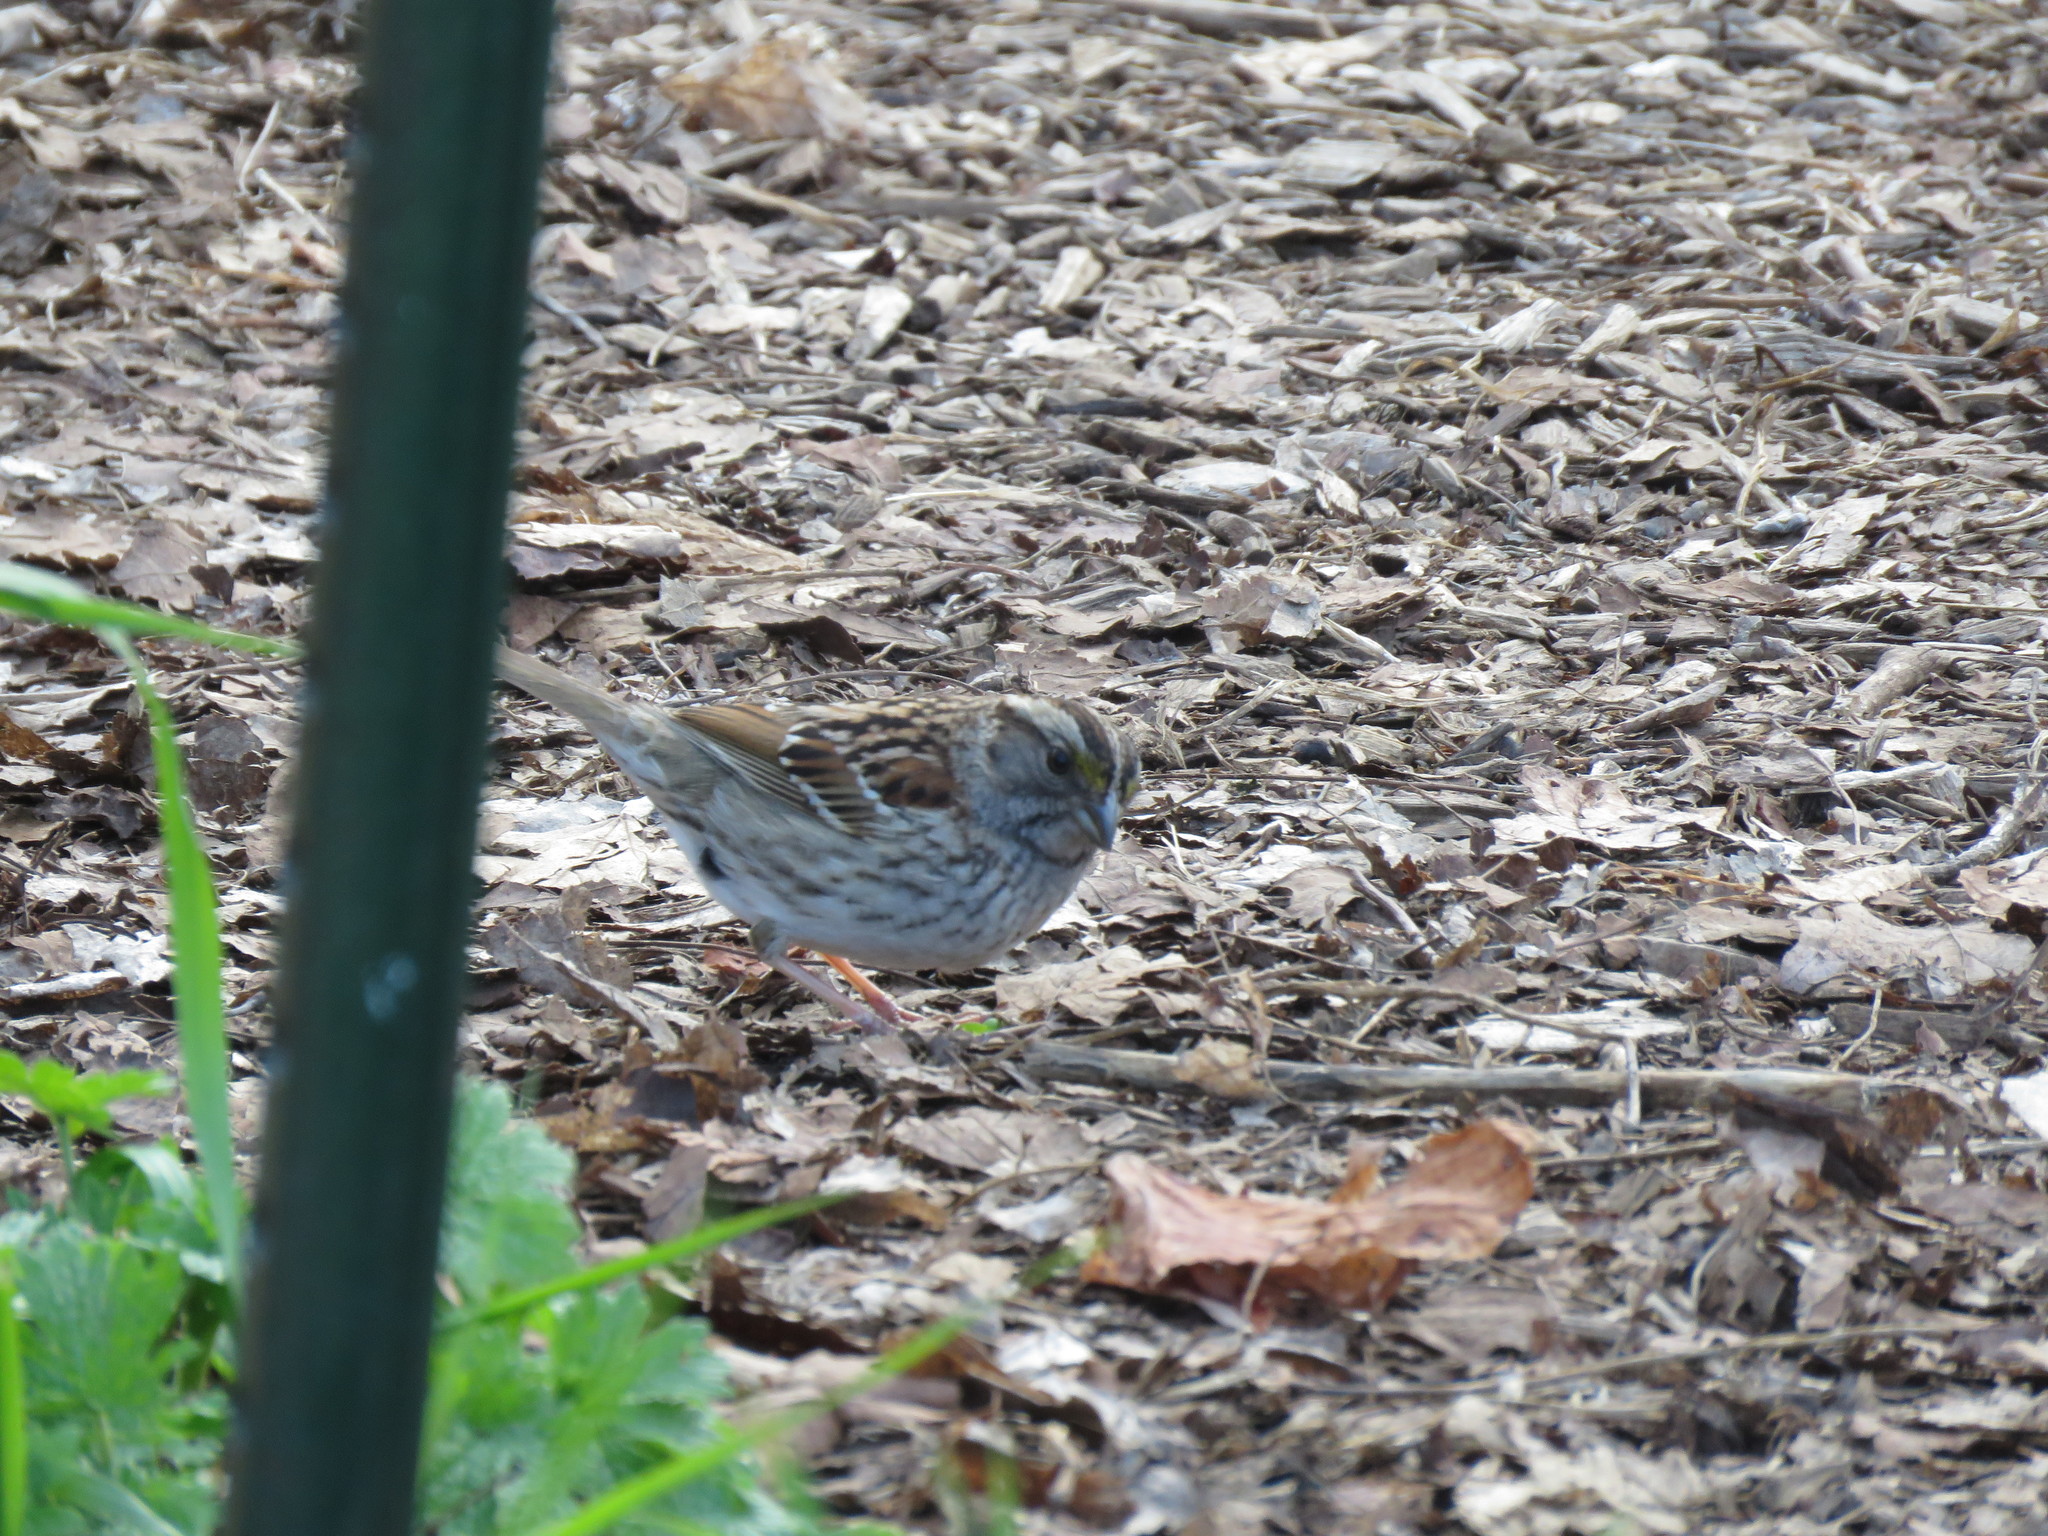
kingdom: Animalia
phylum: Chordata
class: Aves
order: Passeriformes
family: Passerellidae
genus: Zonotrichia
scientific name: Zonotrichia albicollis
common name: White-throated sparrow
